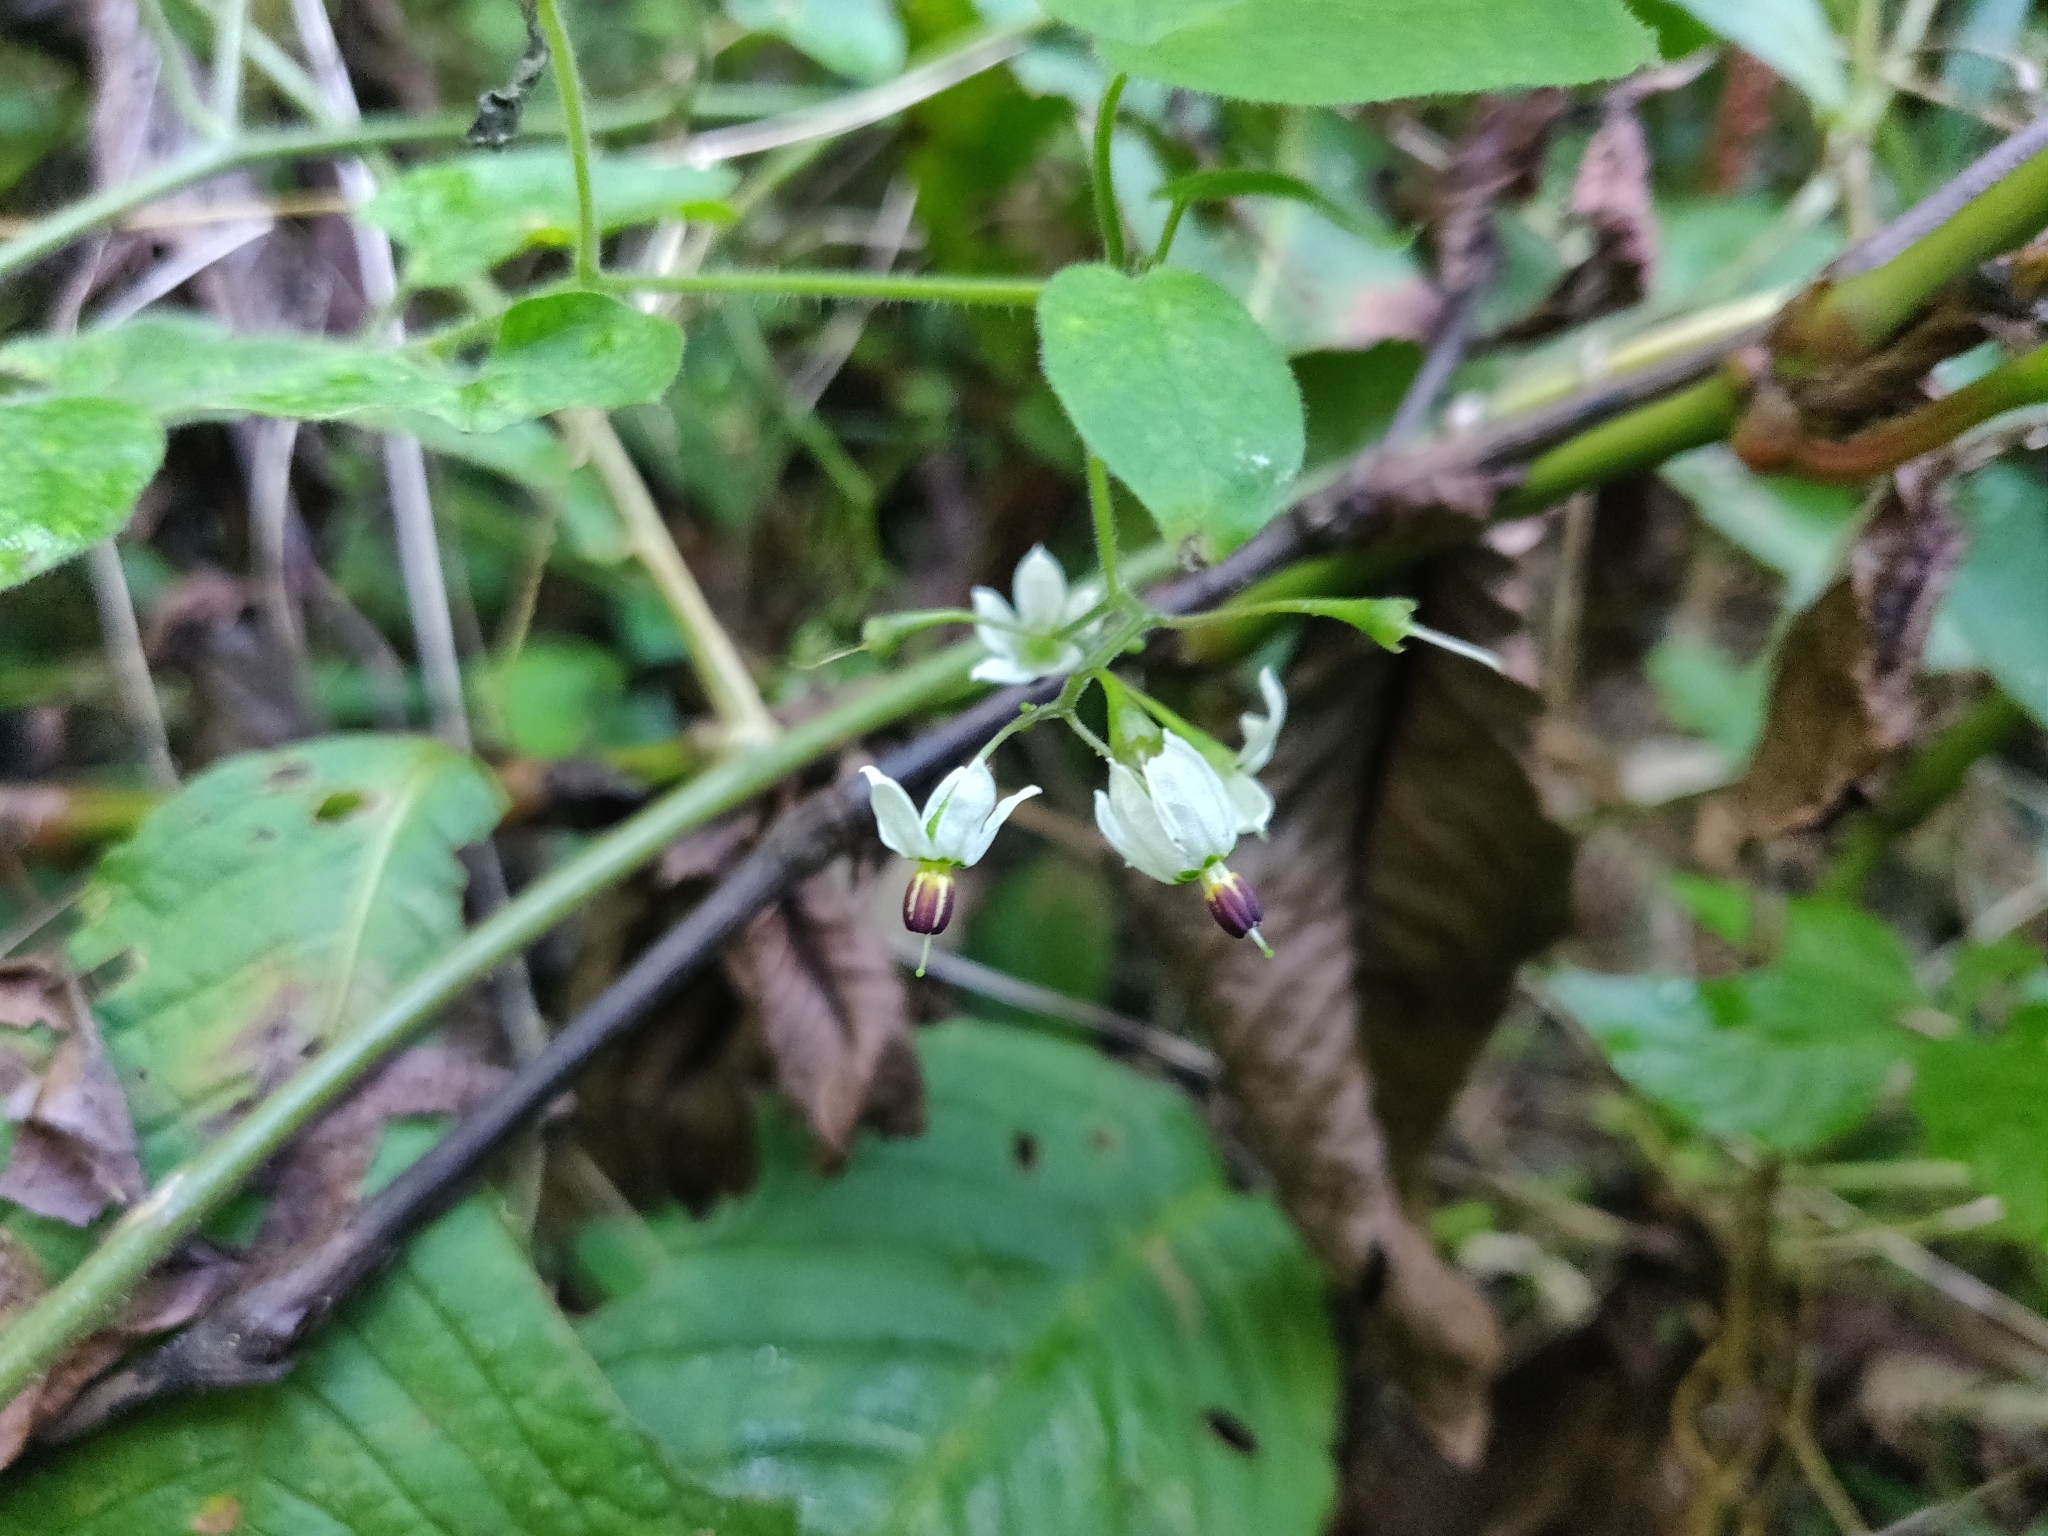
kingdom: Plantae
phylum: Tracheophyta
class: Magnoliopsida
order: Solanales
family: Solanaceae
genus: Solanum
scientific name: Solanum lyratum
